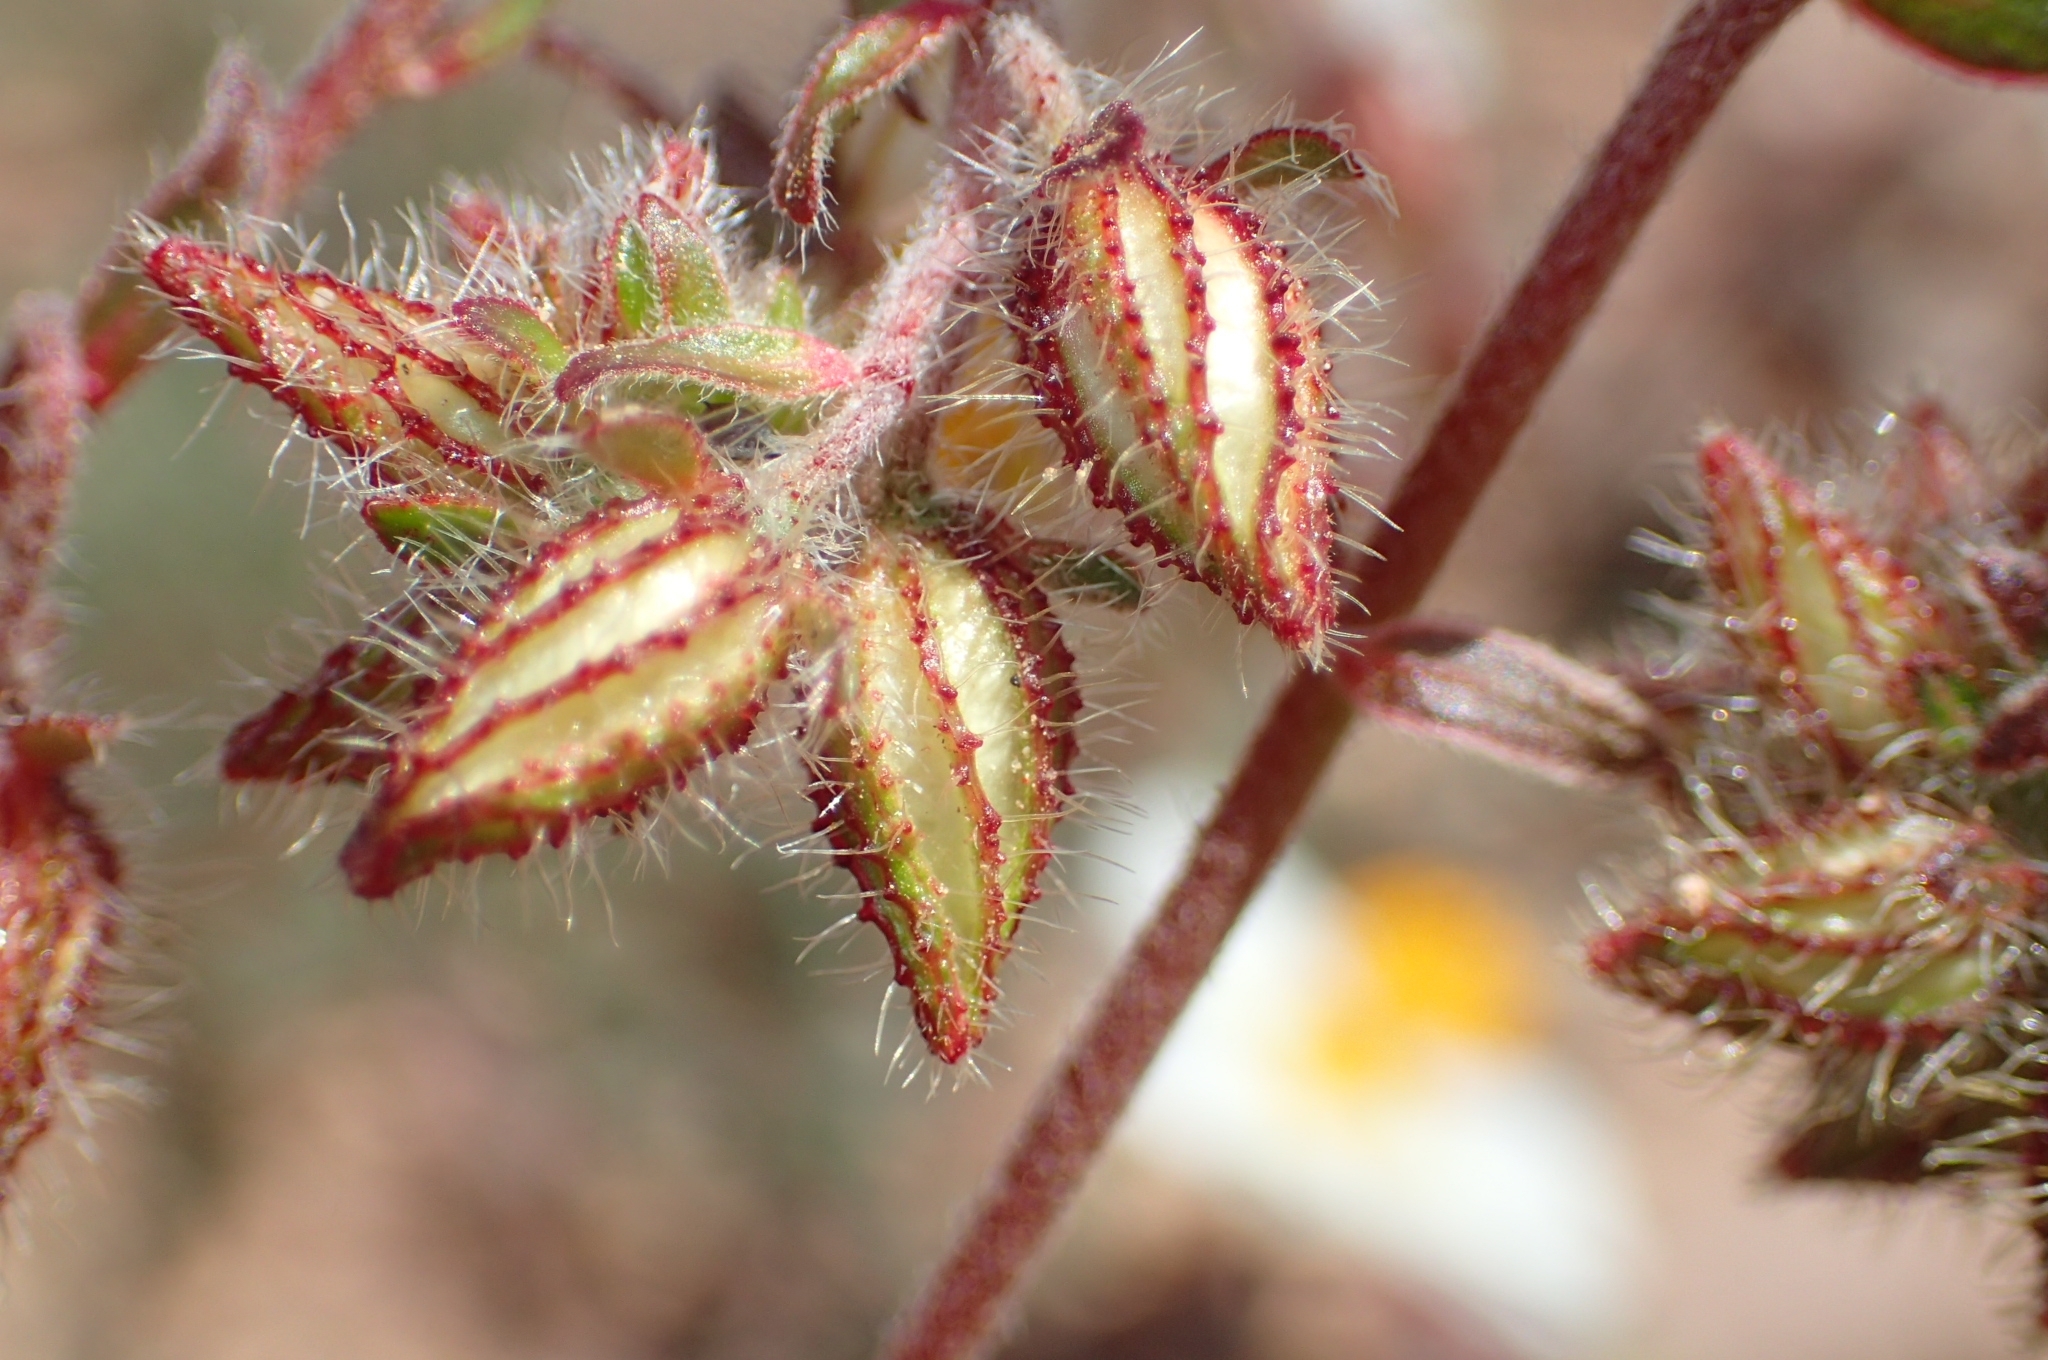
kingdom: Plantae
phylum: Tracheophyta
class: Magnoliopsida
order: Malvales
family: Cistaceae
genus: Helianthemum
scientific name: Helianthemum asperum
